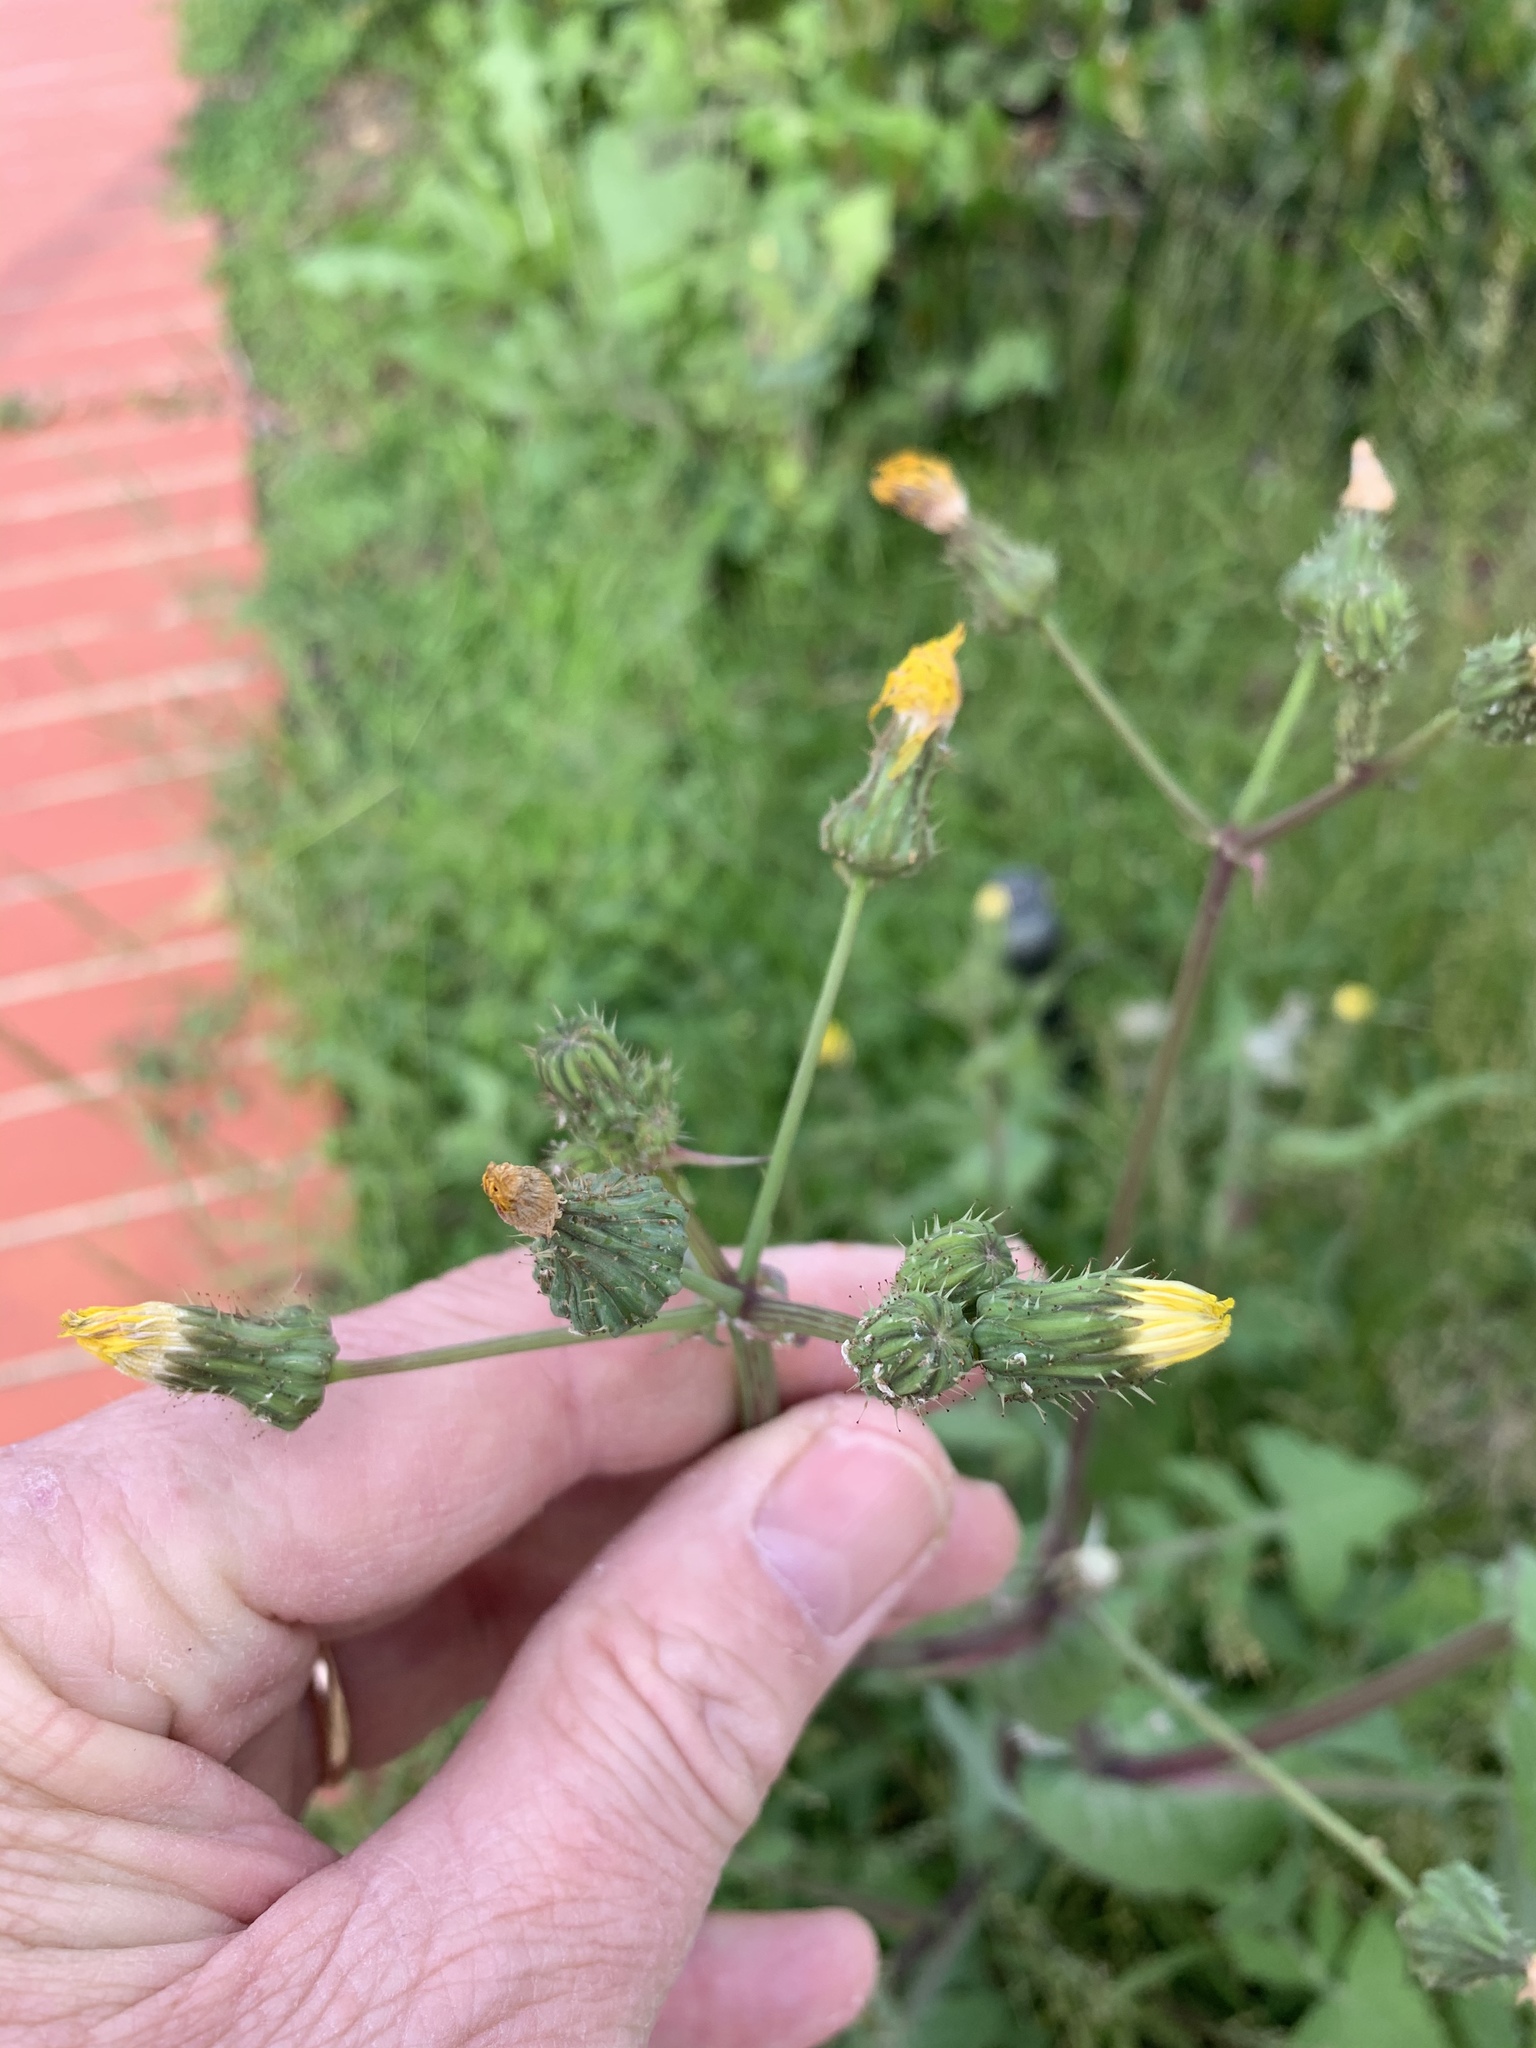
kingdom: Plantae
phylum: Tracheophyta
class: Magnoliopsida
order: Asterales
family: Asteraceae
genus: Sonchus
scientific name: Sonchus oleraceus
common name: Common sowthistle
